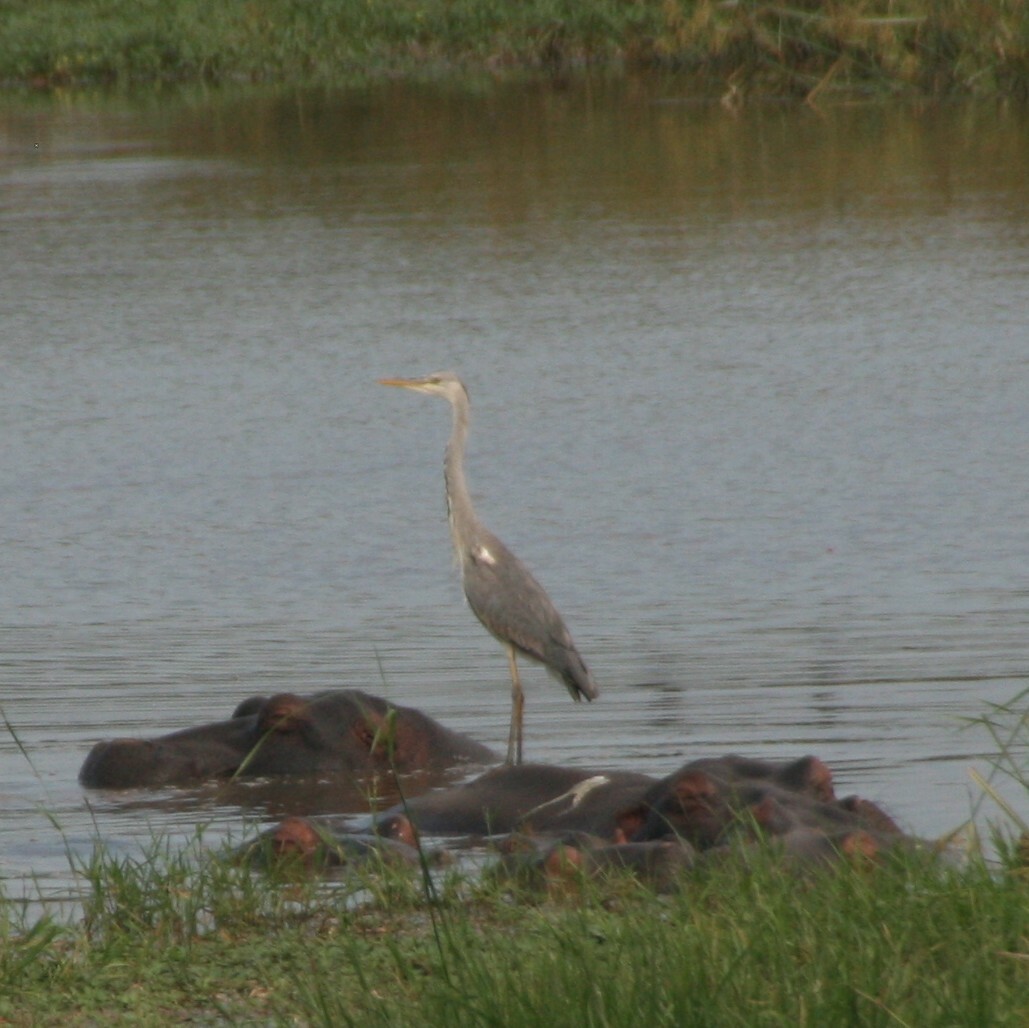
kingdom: Animalia
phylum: Chordata
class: Aves
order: Pelecaniformes
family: Ardeidae
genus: Ardea
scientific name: Ardea cinerea
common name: Grey heron
